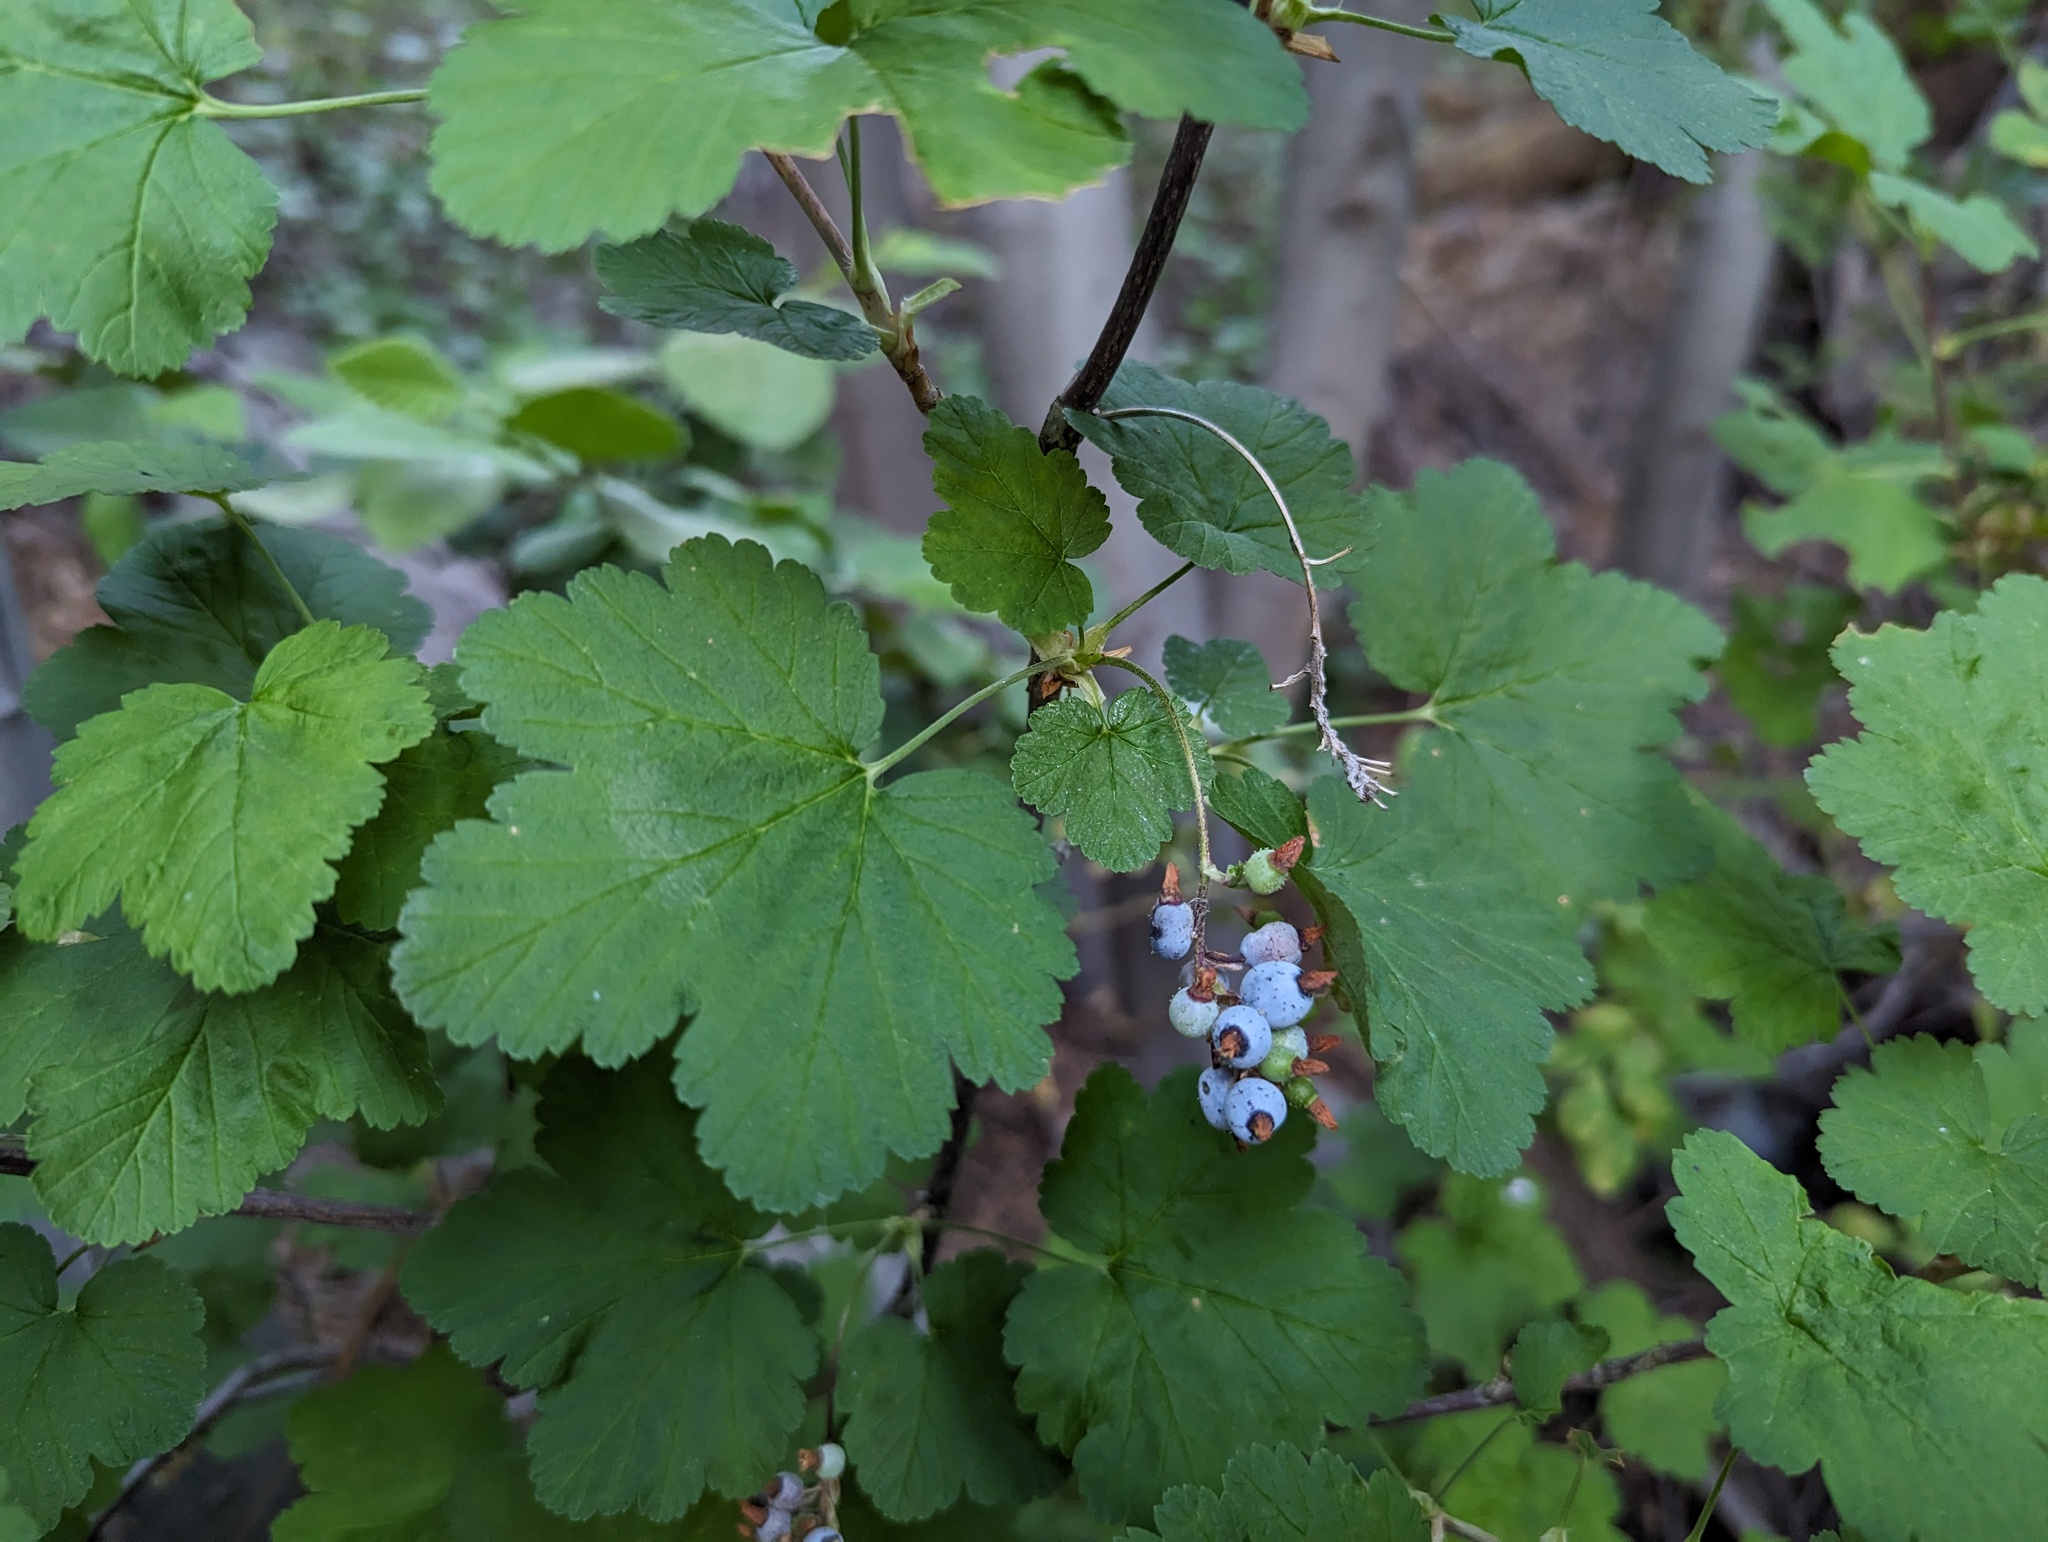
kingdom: Plantae
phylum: Tracheophyta
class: Magnoliopsida
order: Saxifragales
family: Grossulariaceae
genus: Ribes
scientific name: Ribes nevadense
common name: Mountain pink currant
